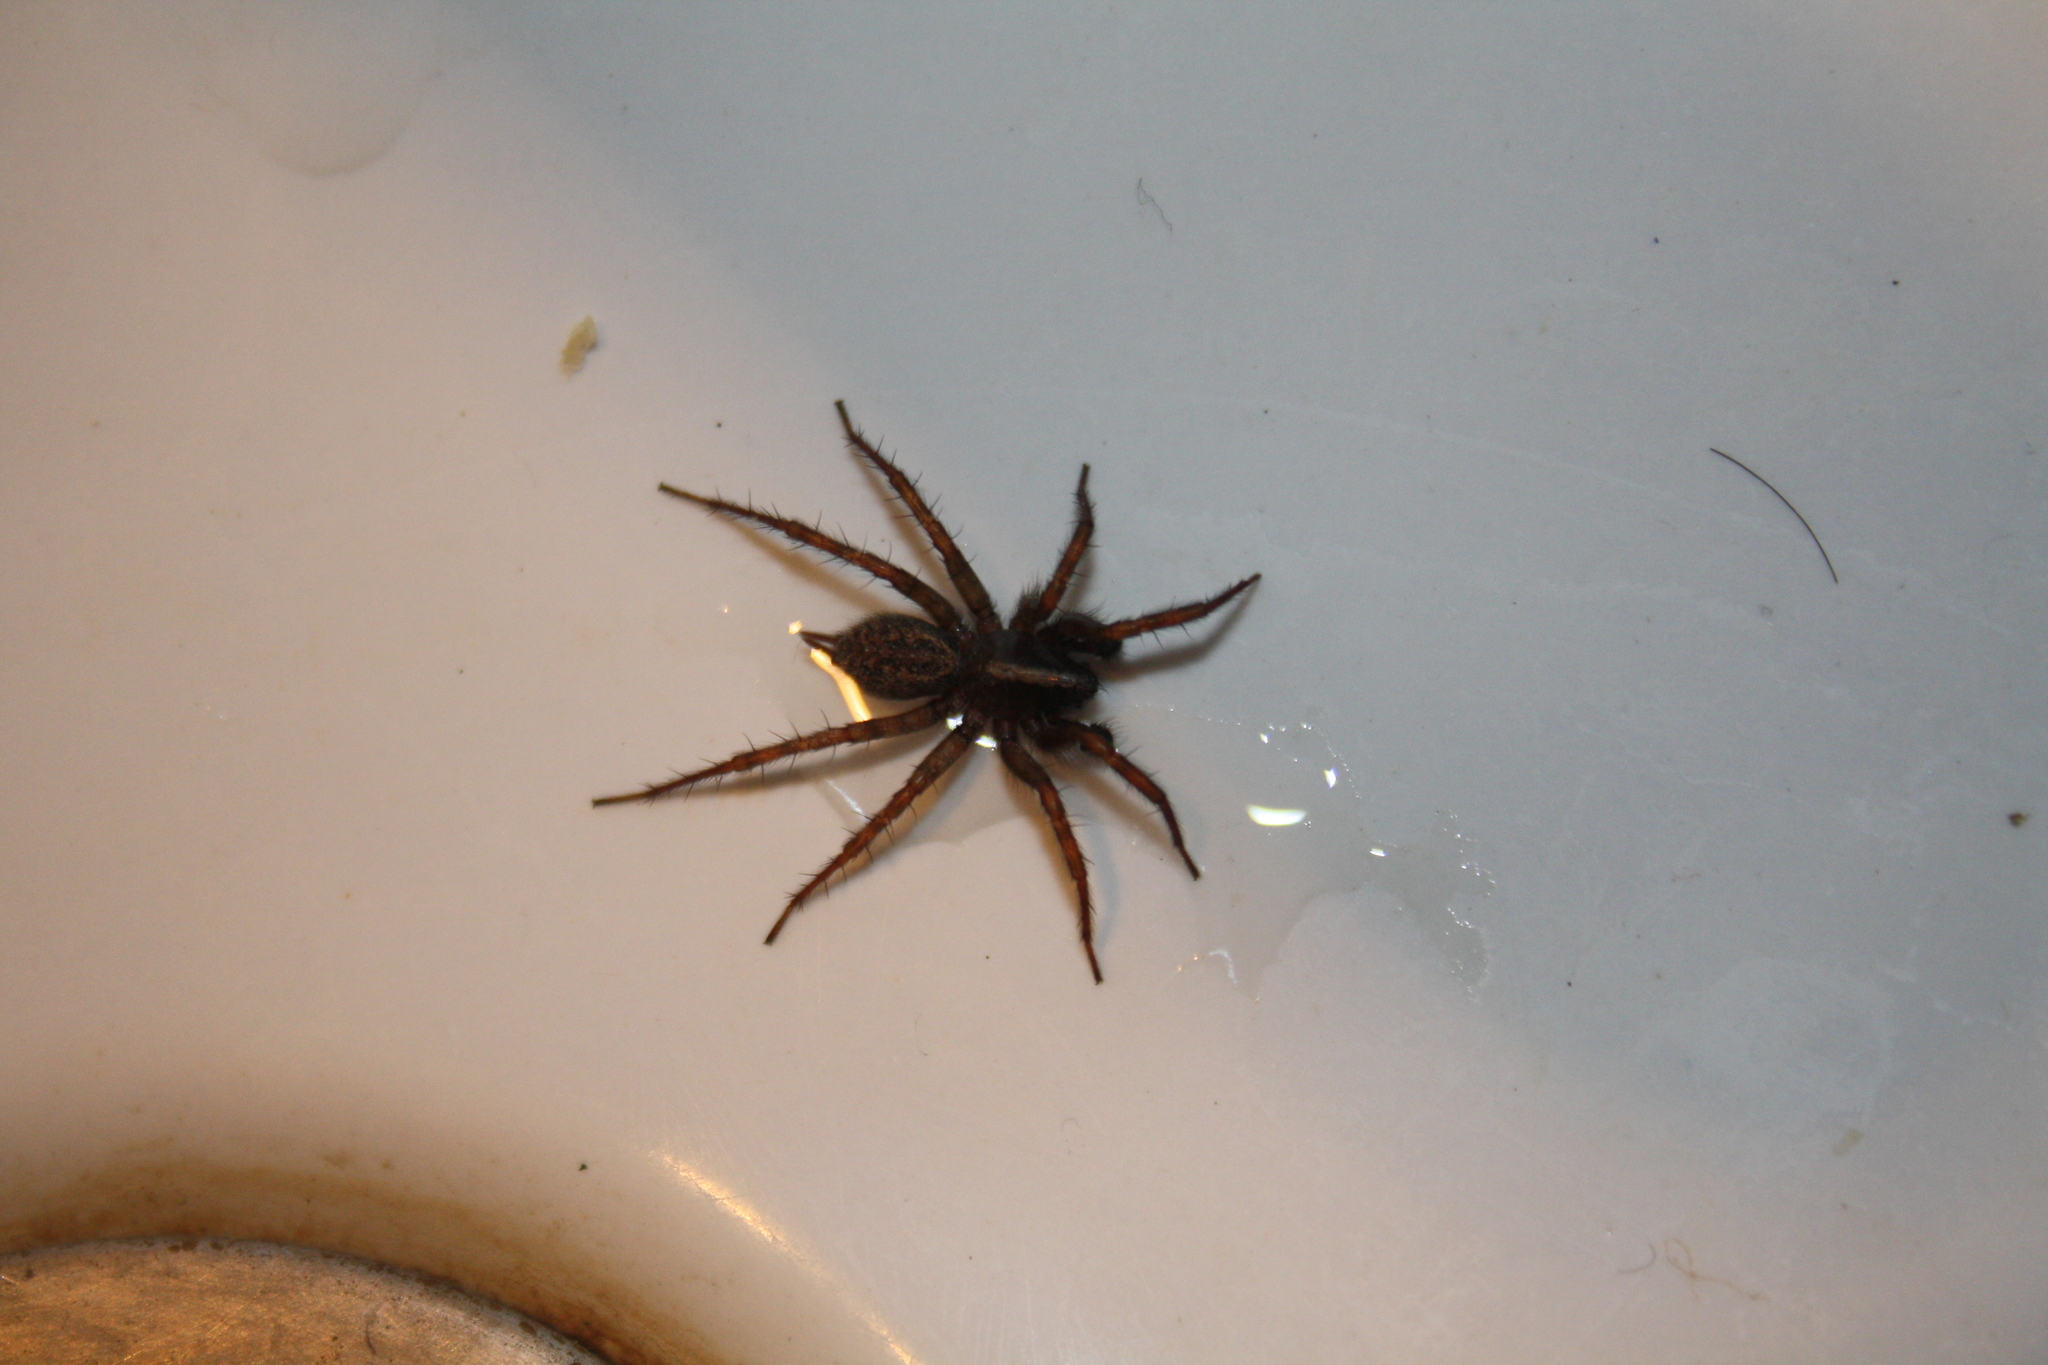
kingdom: Animalia
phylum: Arthropoda
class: Arachnida
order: Araneae
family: Agelenidae
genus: Maimuna
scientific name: Maimuna vestita
